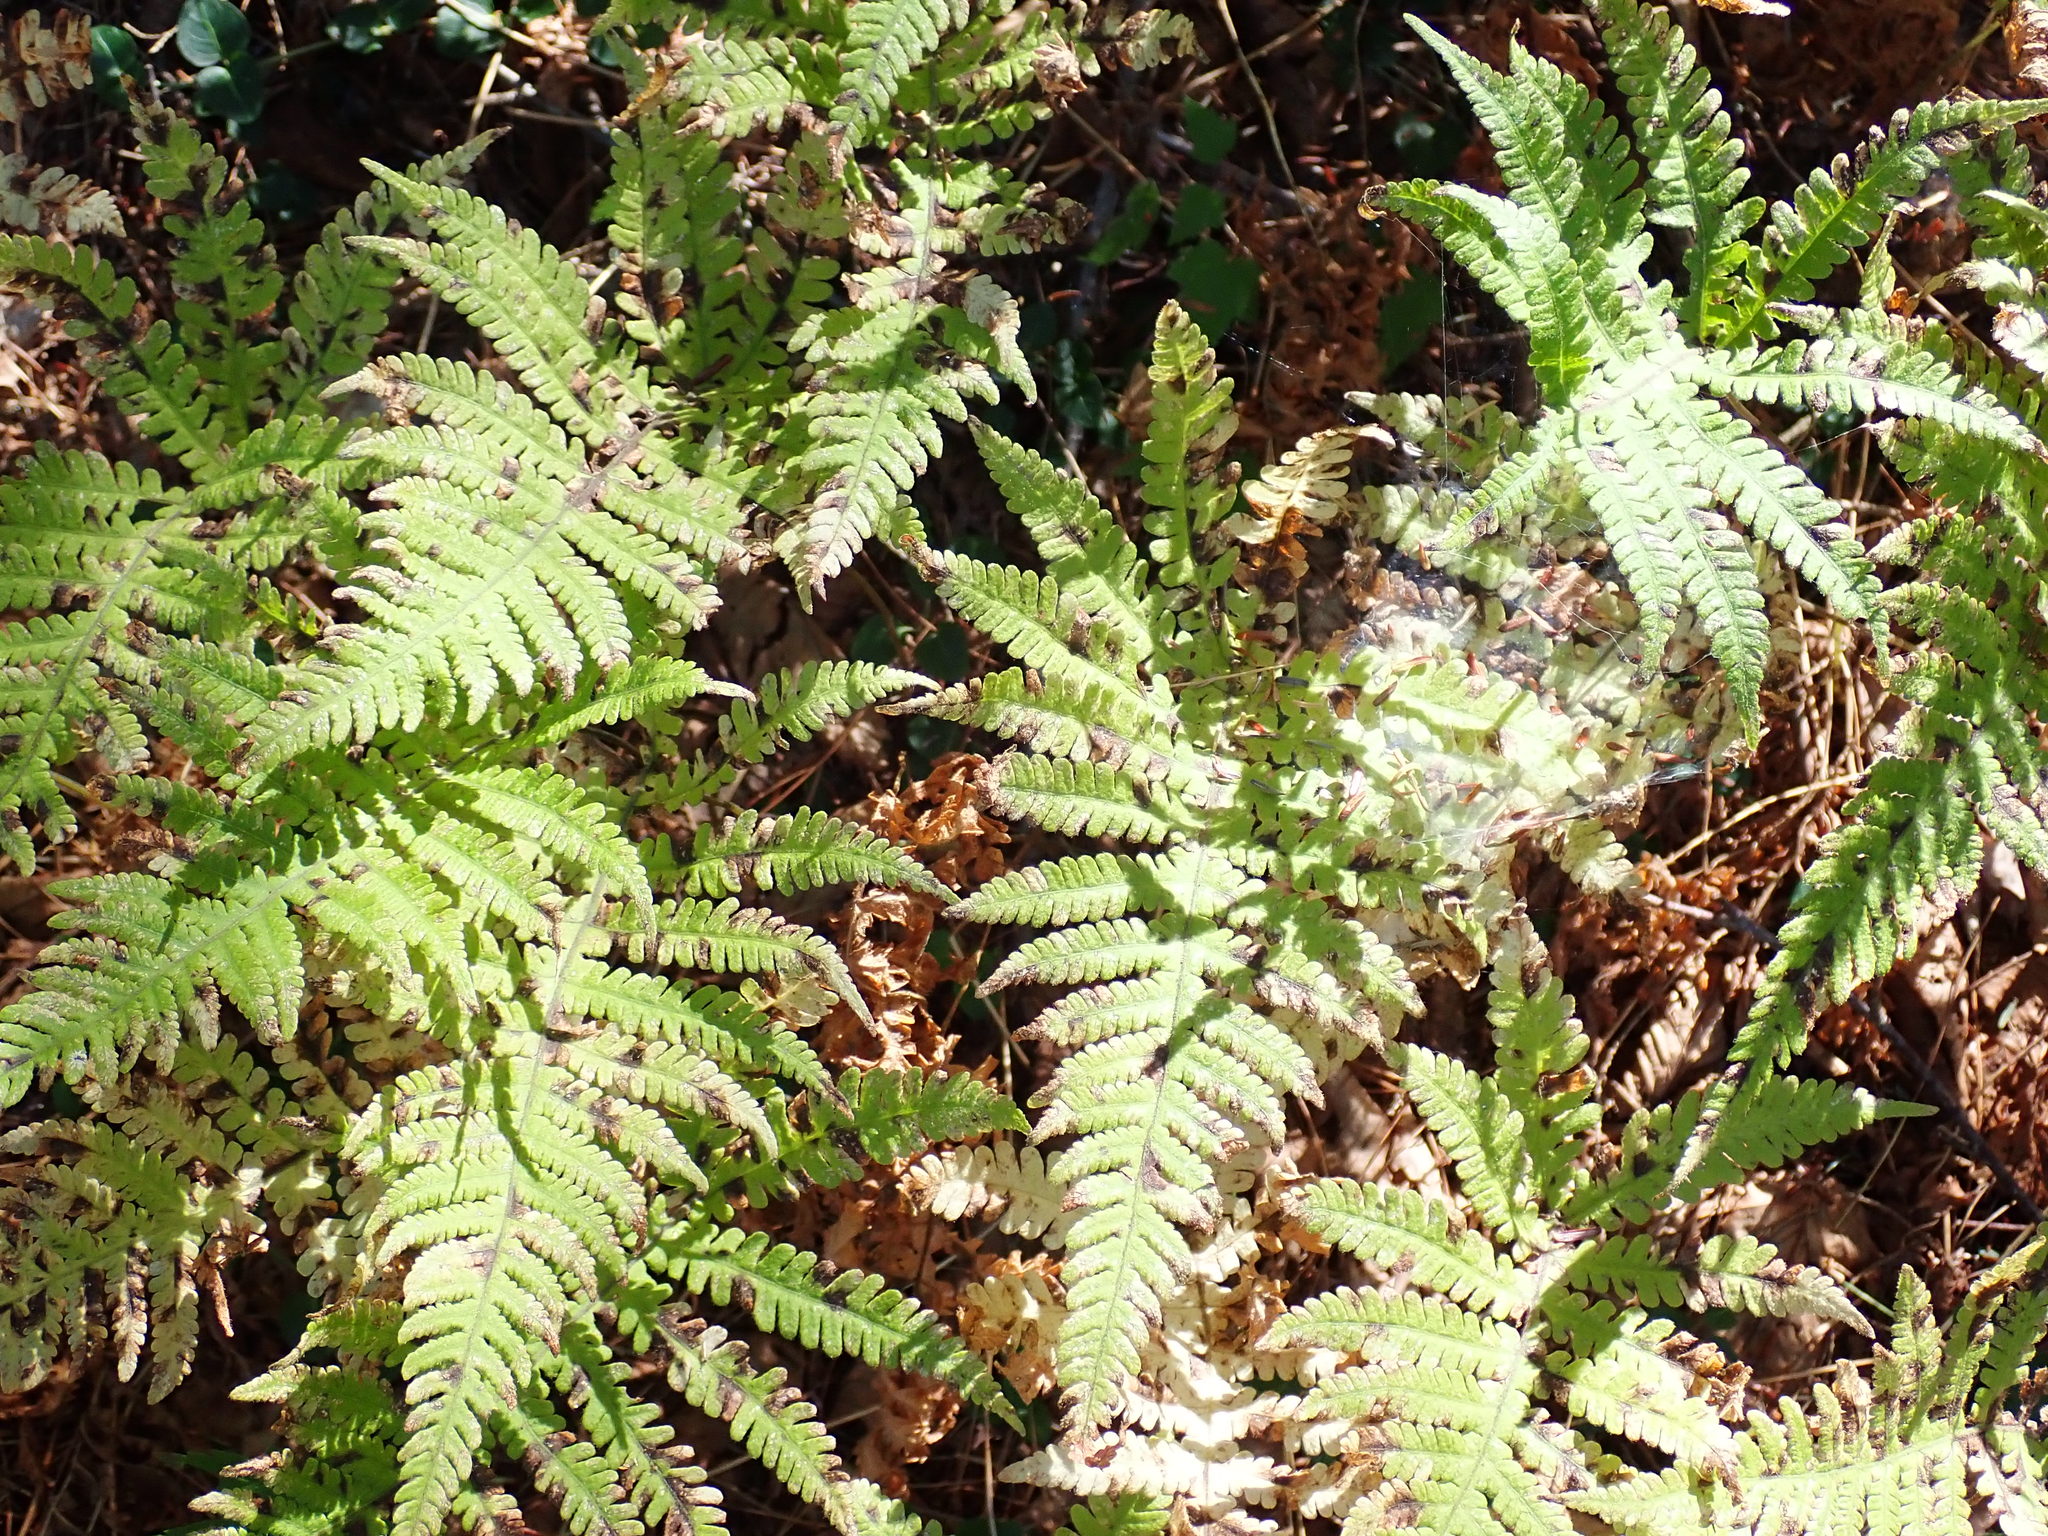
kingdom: Plantae
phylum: Tracheophyta
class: Polypodiopsida
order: Polypodiales
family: Thelypteridaceae
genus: Phegopteris
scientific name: Phegopteris connectilis
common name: Beech fern
